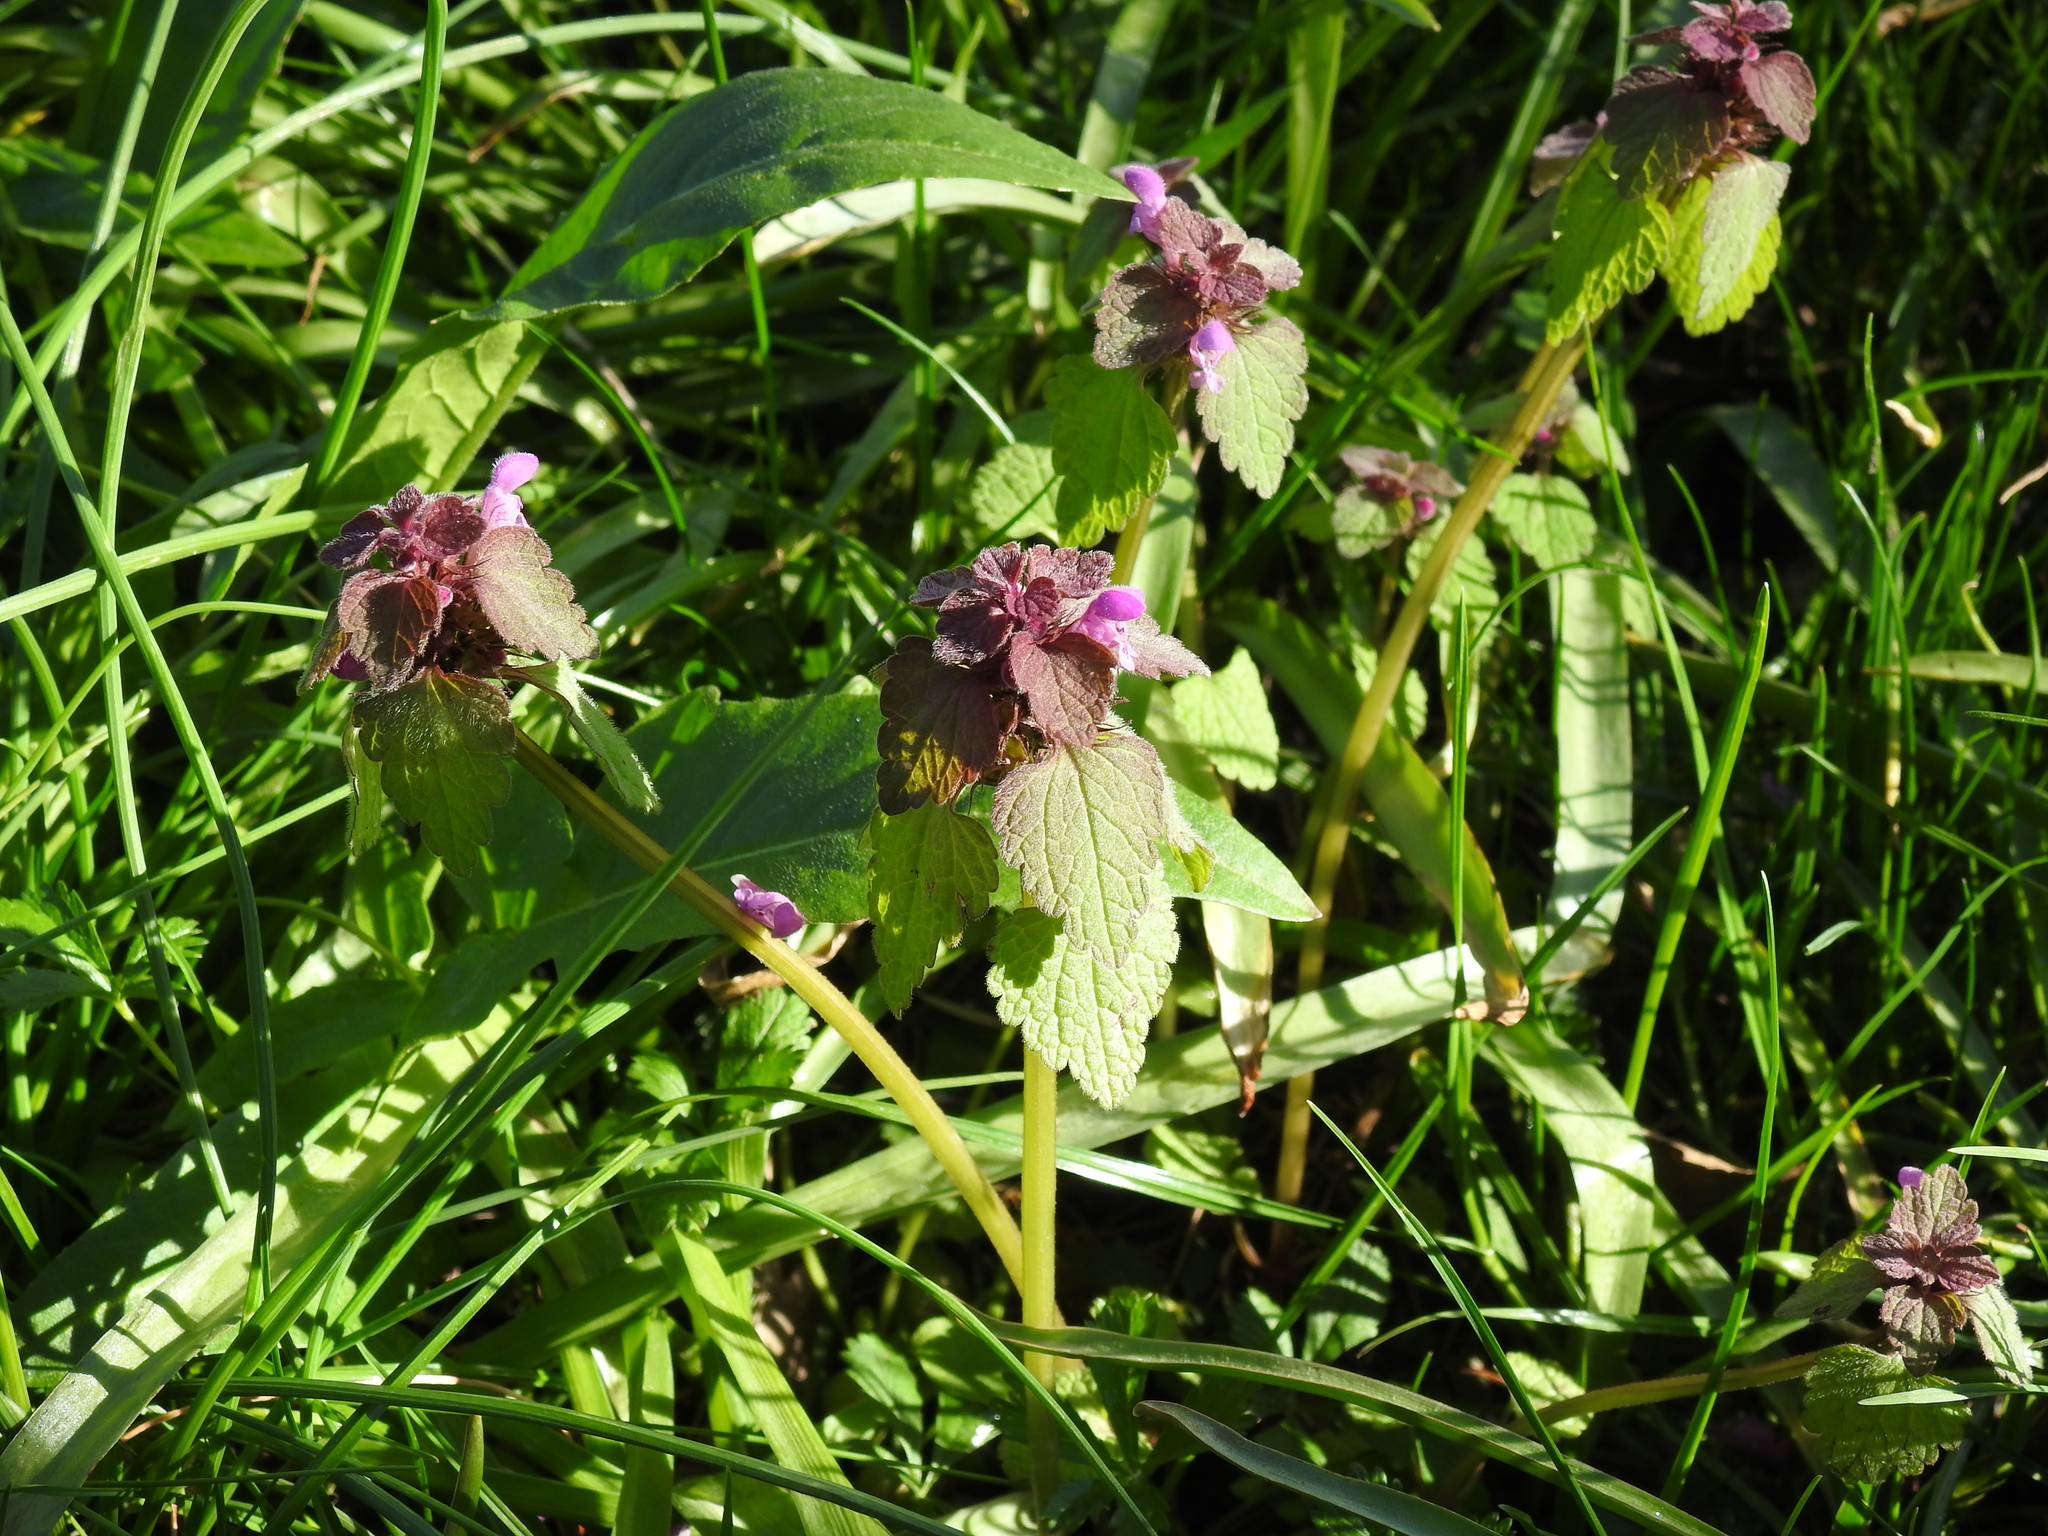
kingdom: Plantae
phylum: Tracheophyta
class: Magnoliopsida
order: Lamiales
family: Lamiaceae
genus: Lamium
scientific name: Lamium purpureum
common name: Red dead-nettle
